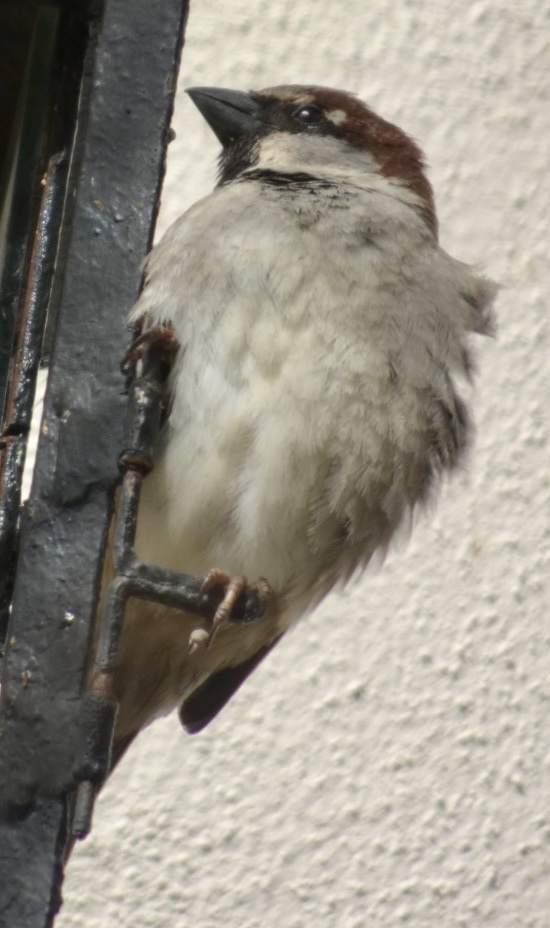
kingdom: Animalia
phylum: Chordata
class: Aves
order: Passeriformes
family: Passeridae
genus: Passer
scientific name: Passer domesticus
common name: House sparrow
